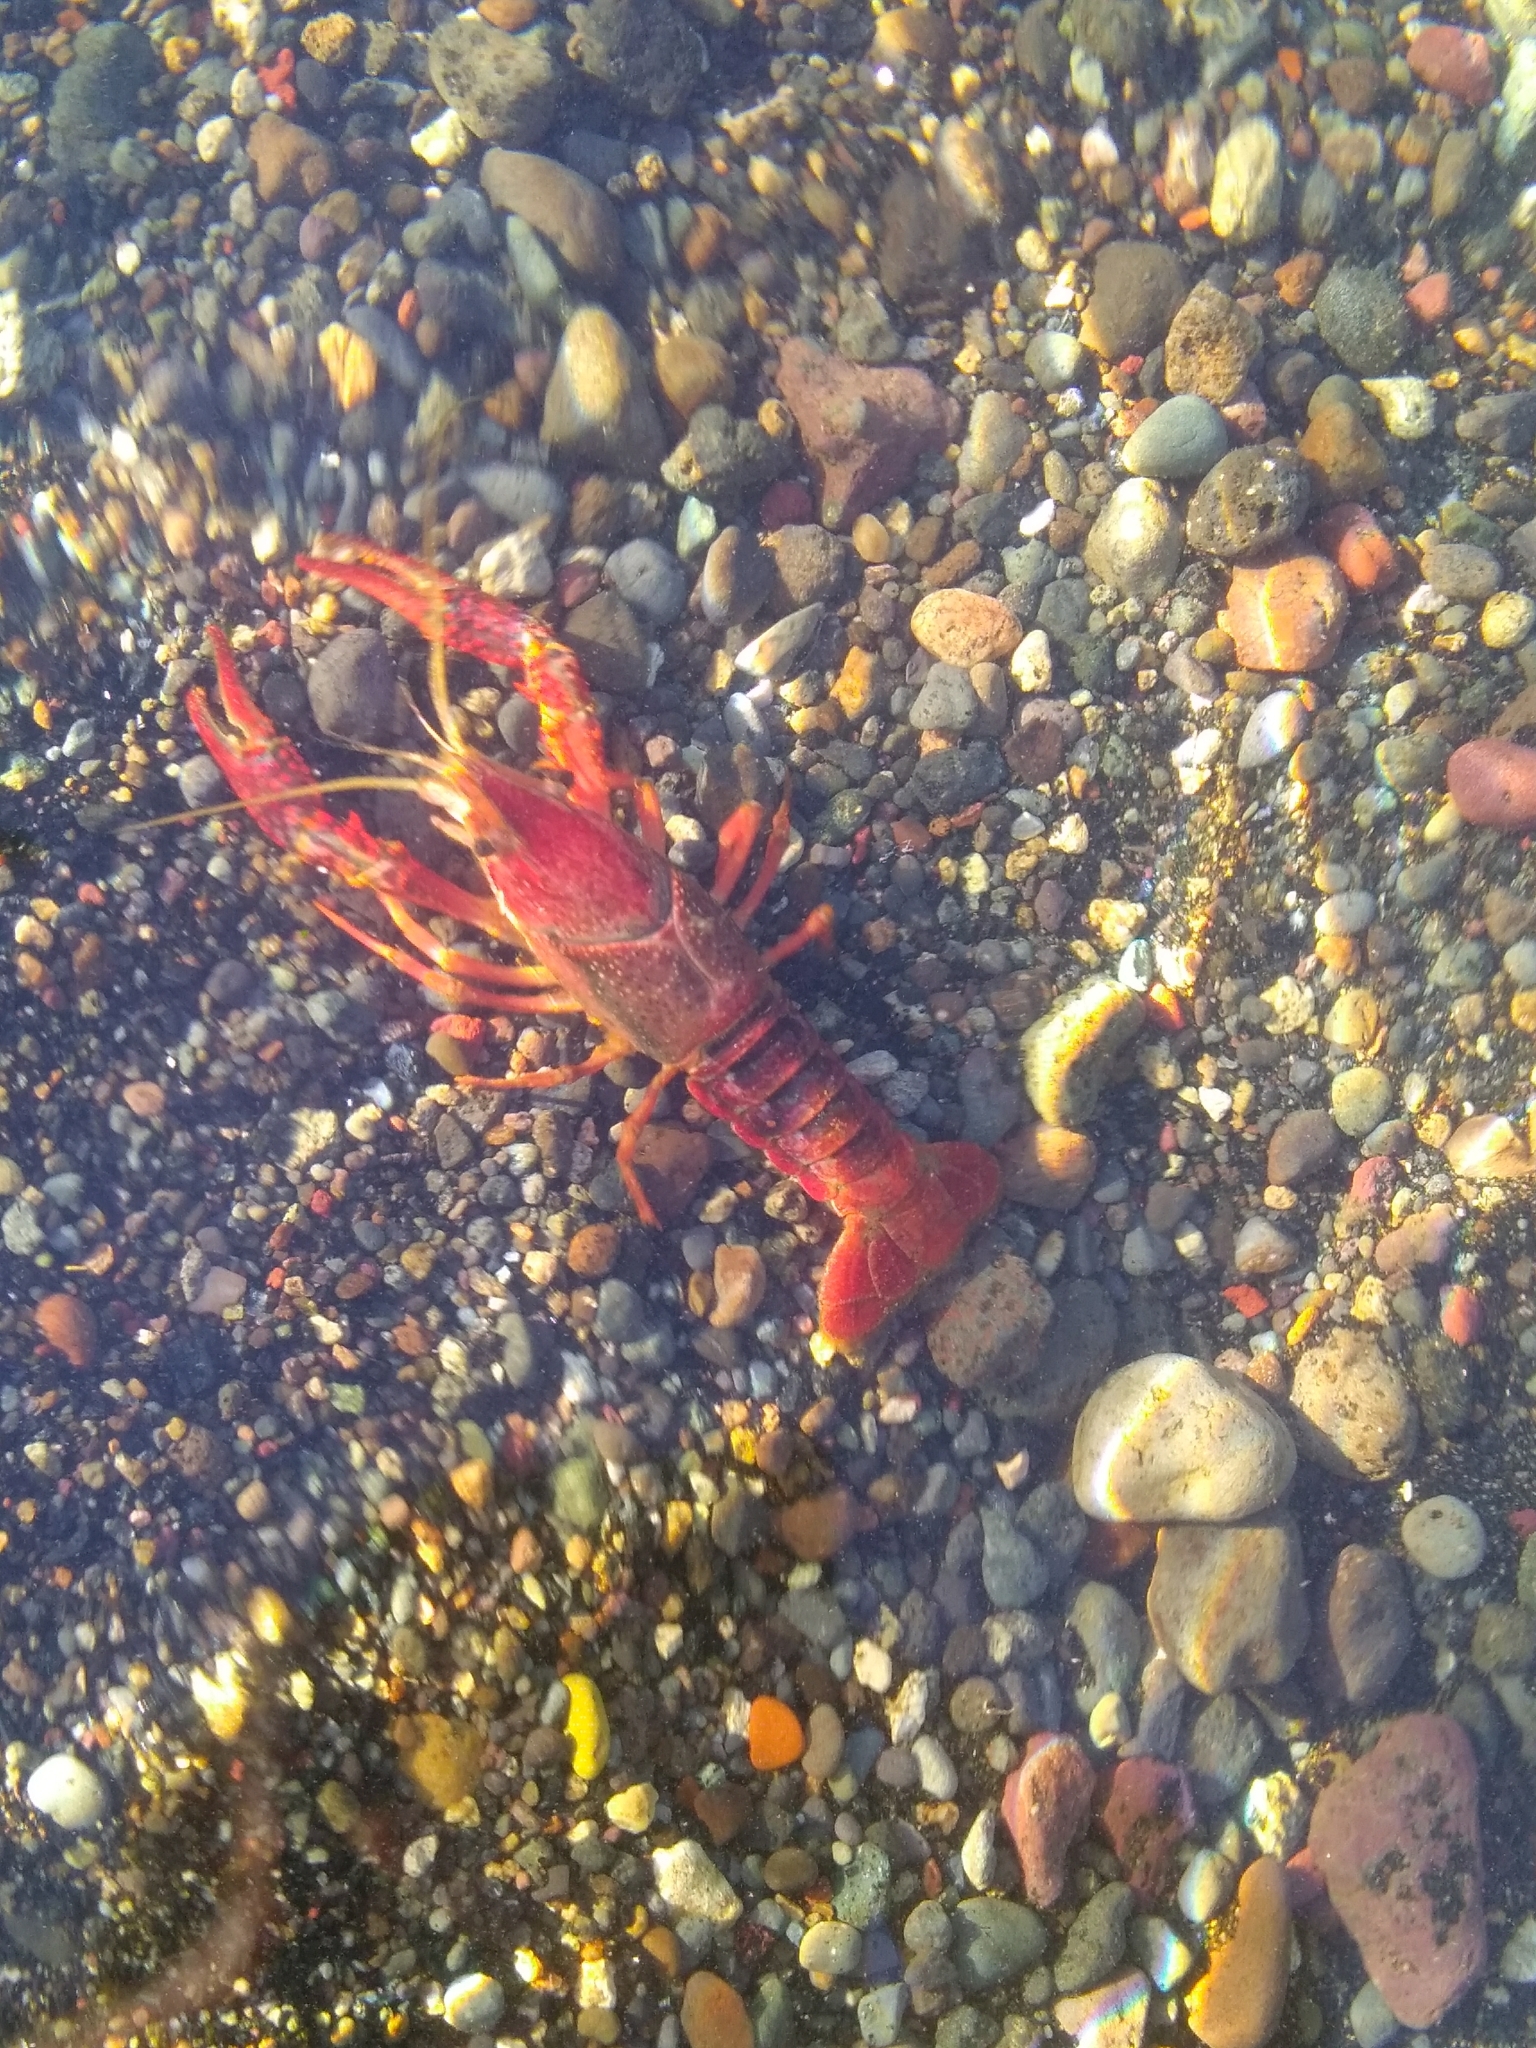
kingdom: Animalia
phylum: Arthropoda
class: Malacostraca
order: Decapoda
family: Cambaridae
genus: Procambarus
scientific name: Procambarus clarkii
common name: Red swamp crayfish
